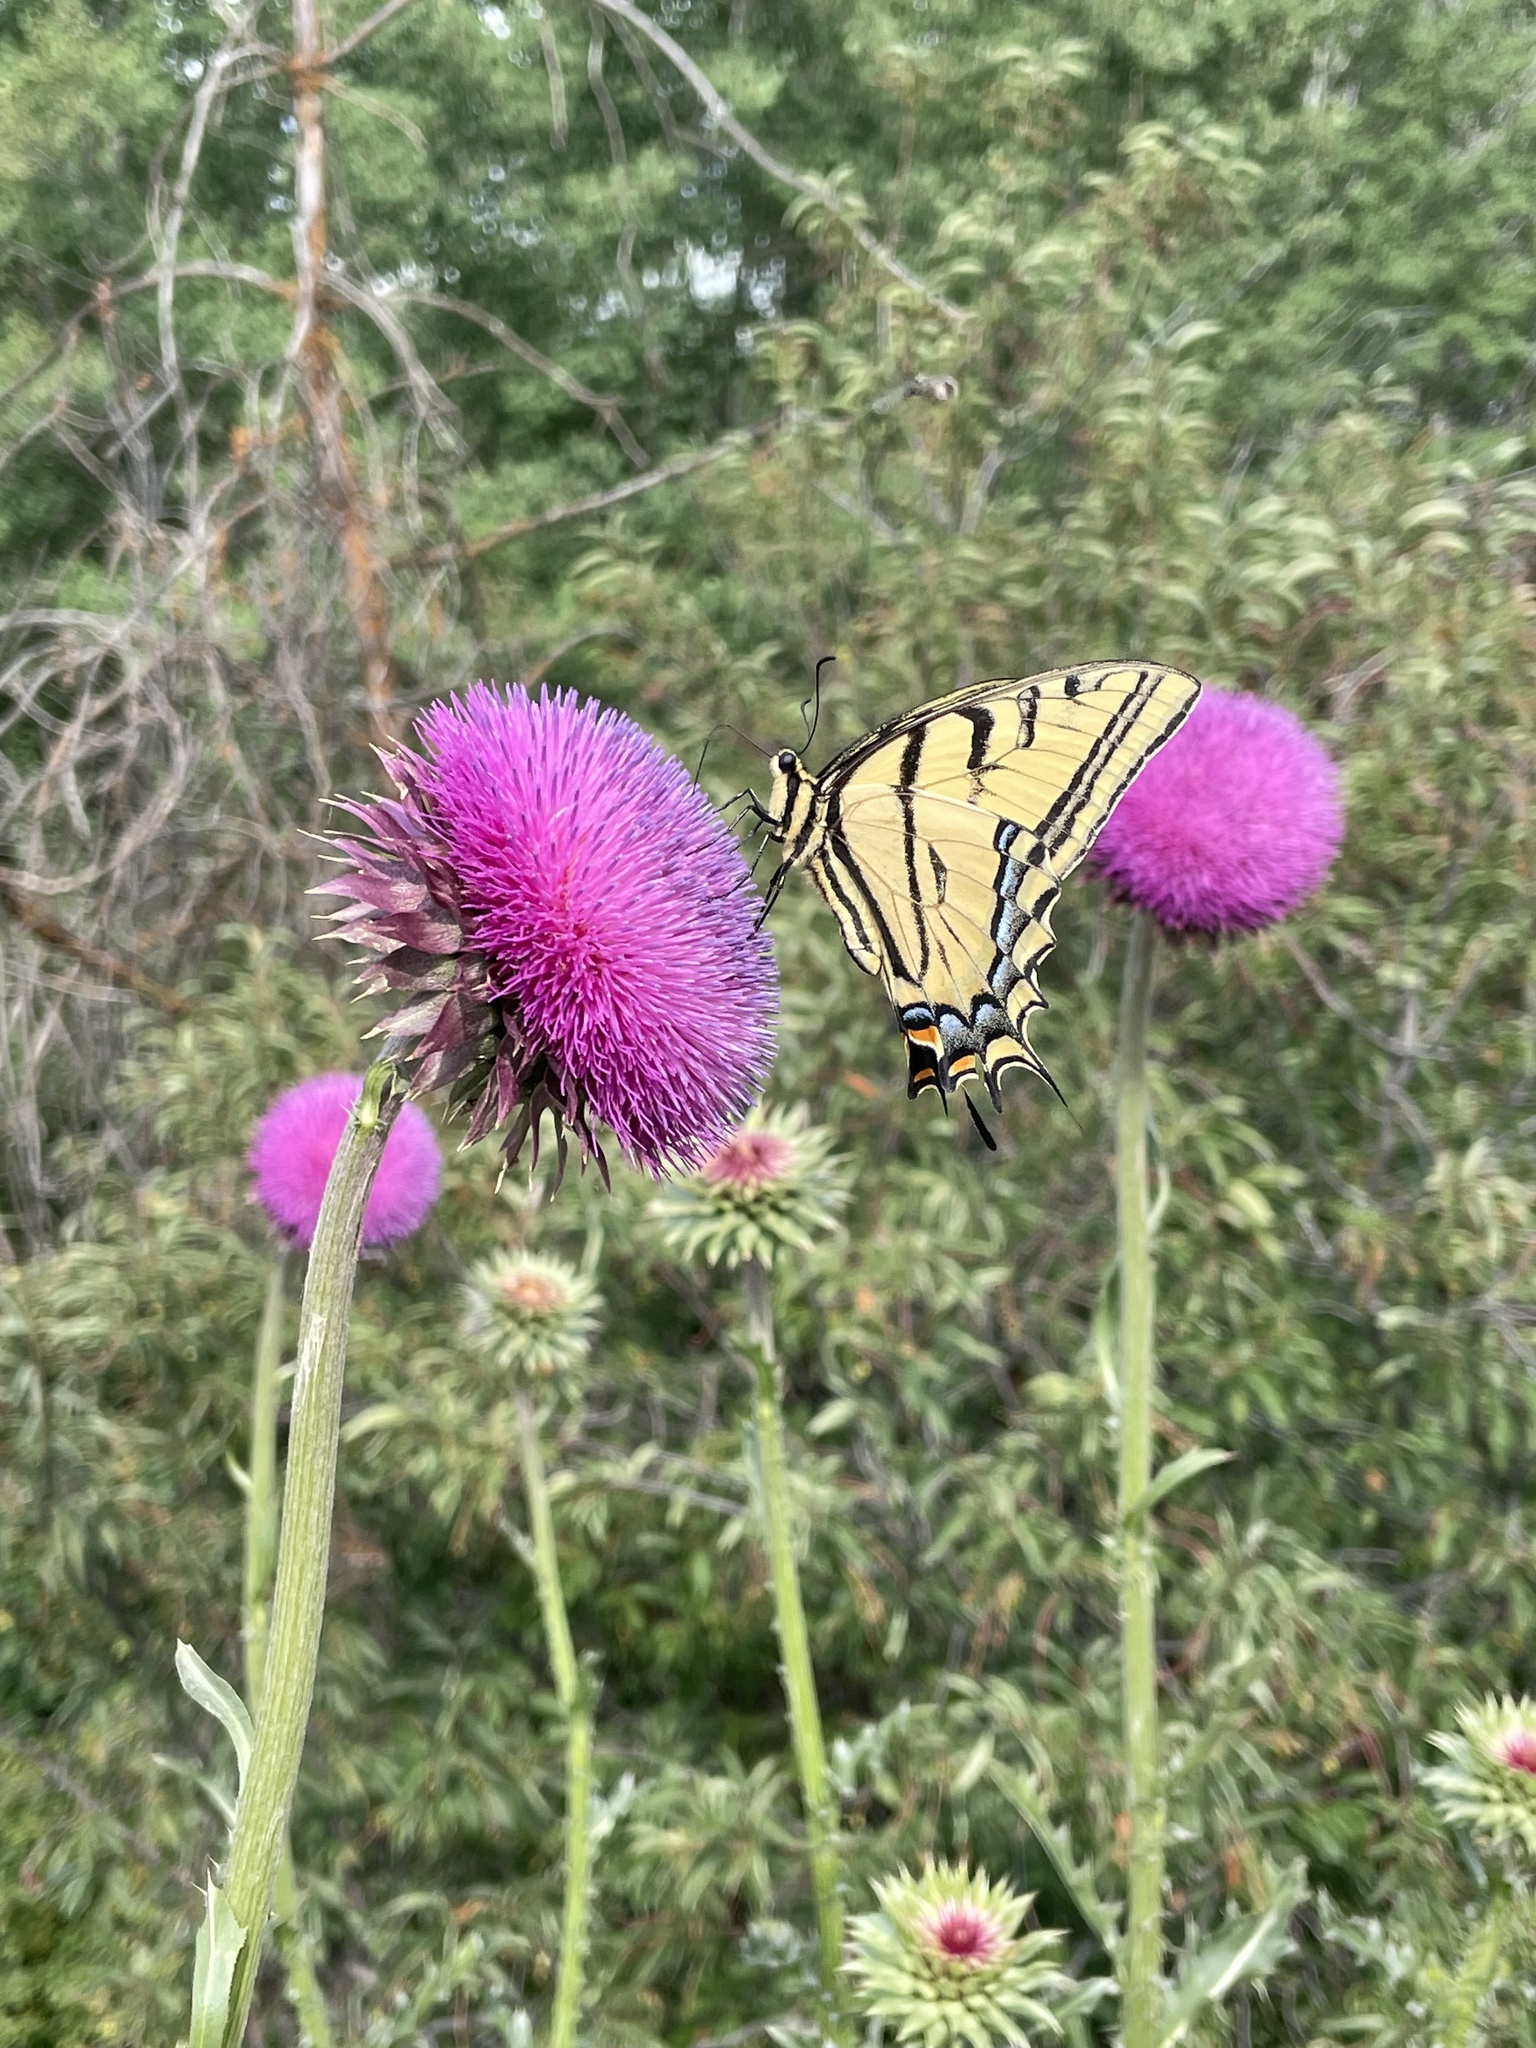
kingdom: Animalia
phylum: Arthropoda
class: Insecta
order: Lepidoptera
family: Papilionidae
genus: Papilio
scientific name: Papilio multicaudata
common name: Two-tailed tiger swallowtail
